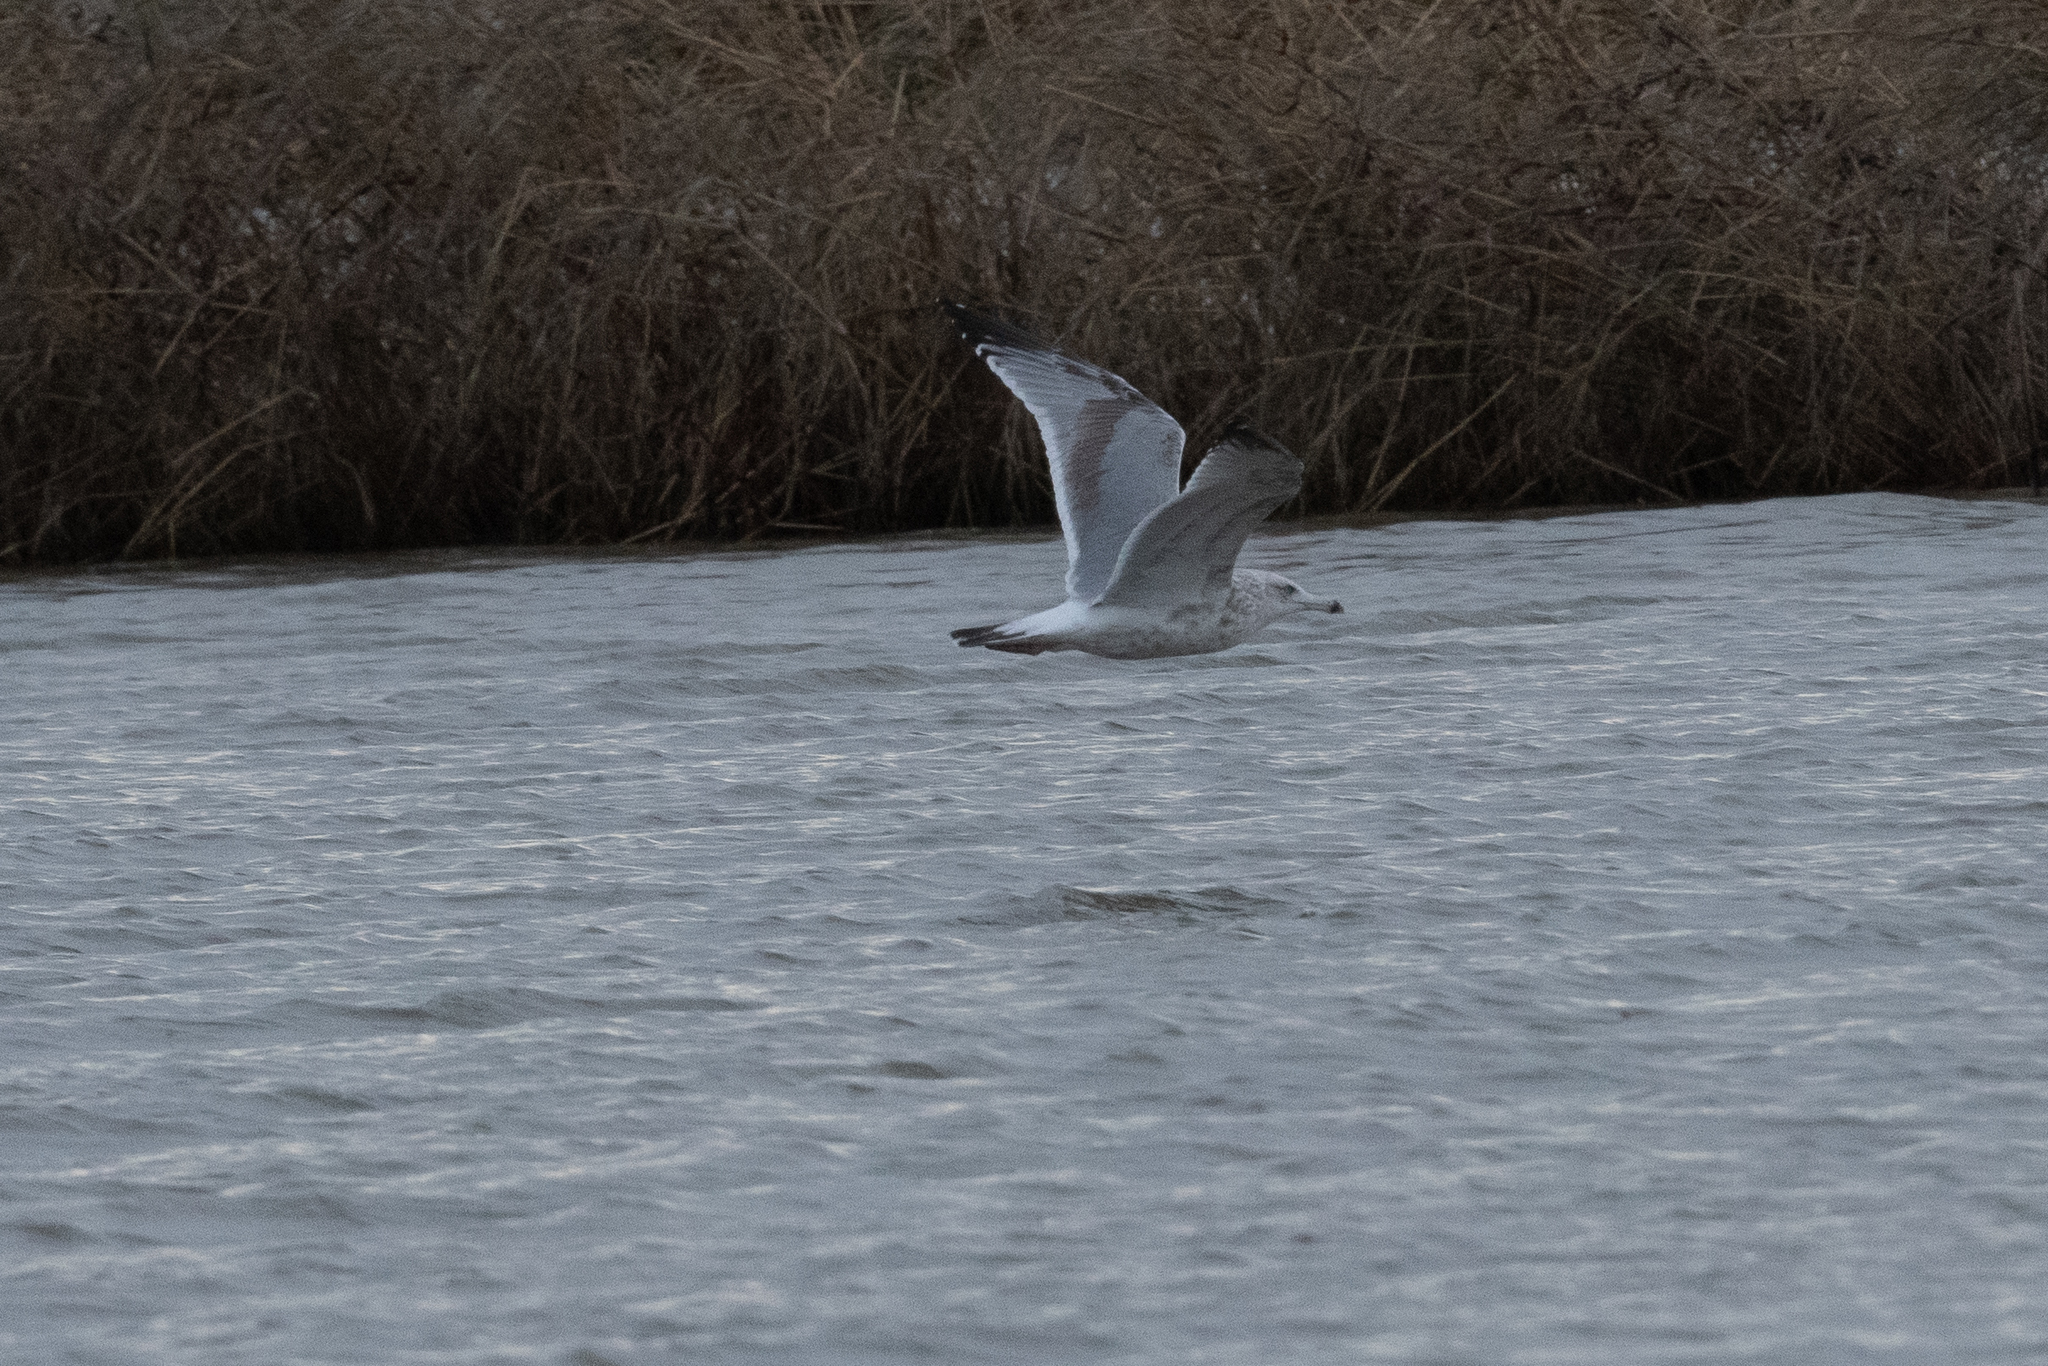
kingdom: Animalia
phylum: Chordata
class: Aves
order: Charadriiformes
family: Laridae
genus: Larus
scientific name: Larus argentatus
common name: Herring gull
